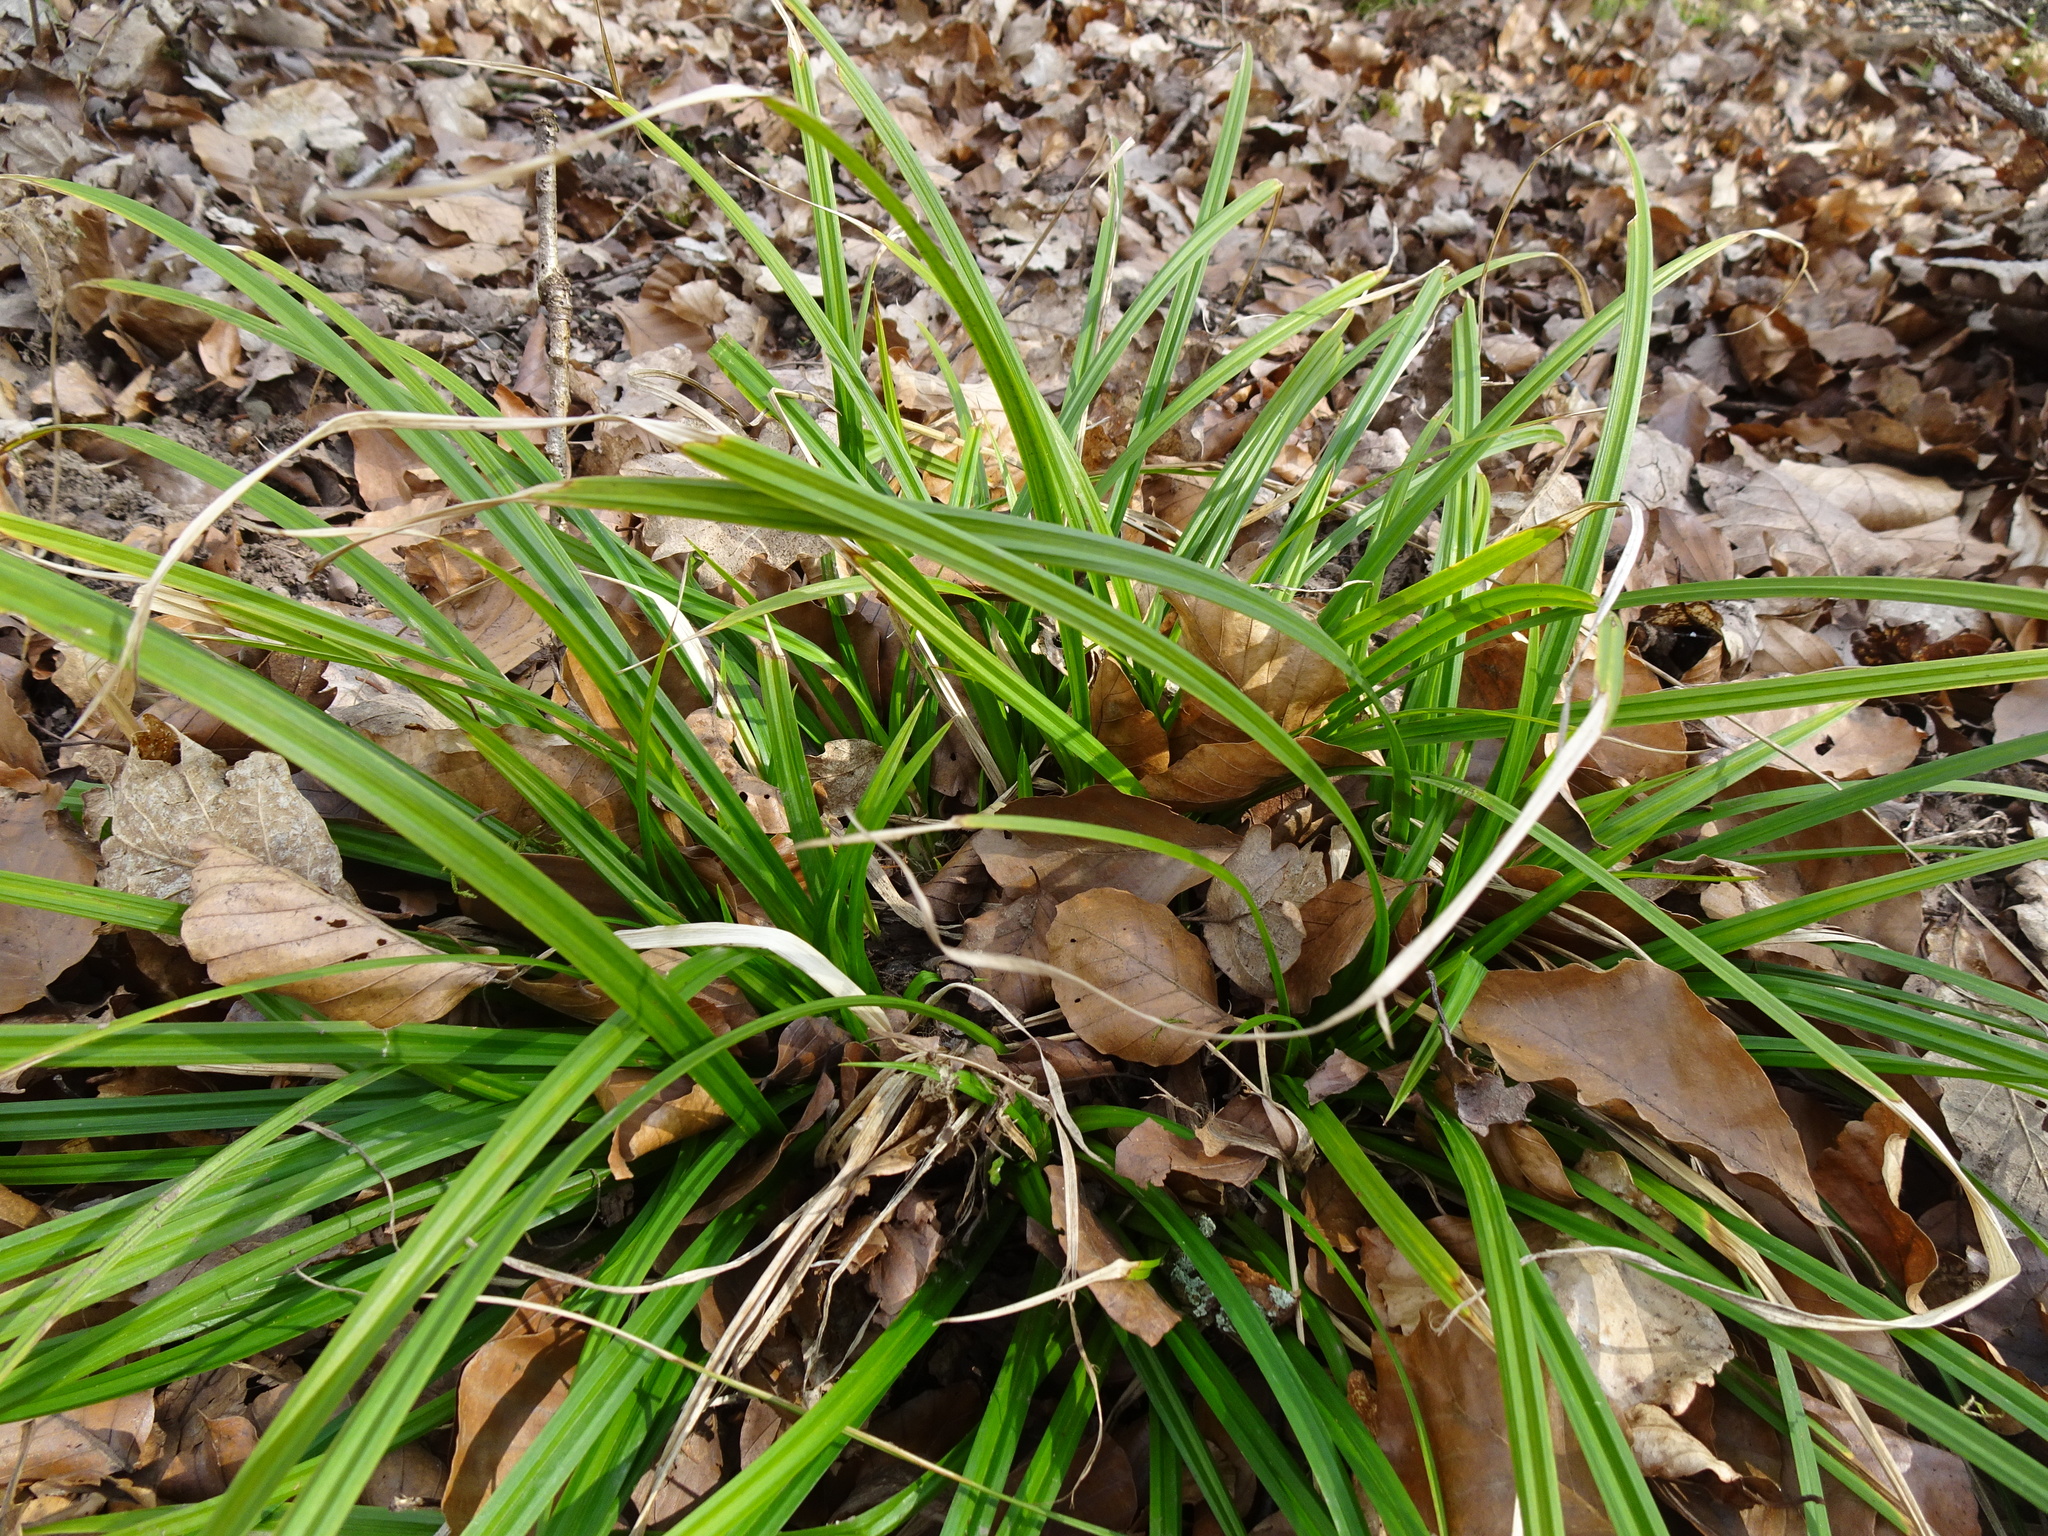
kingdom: Plantae
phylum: Tracheophyta
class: Liliopsida
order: Poales
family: Cyperaceae
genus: Carex
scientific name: Carex sylvatica
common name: Wood-sedge
